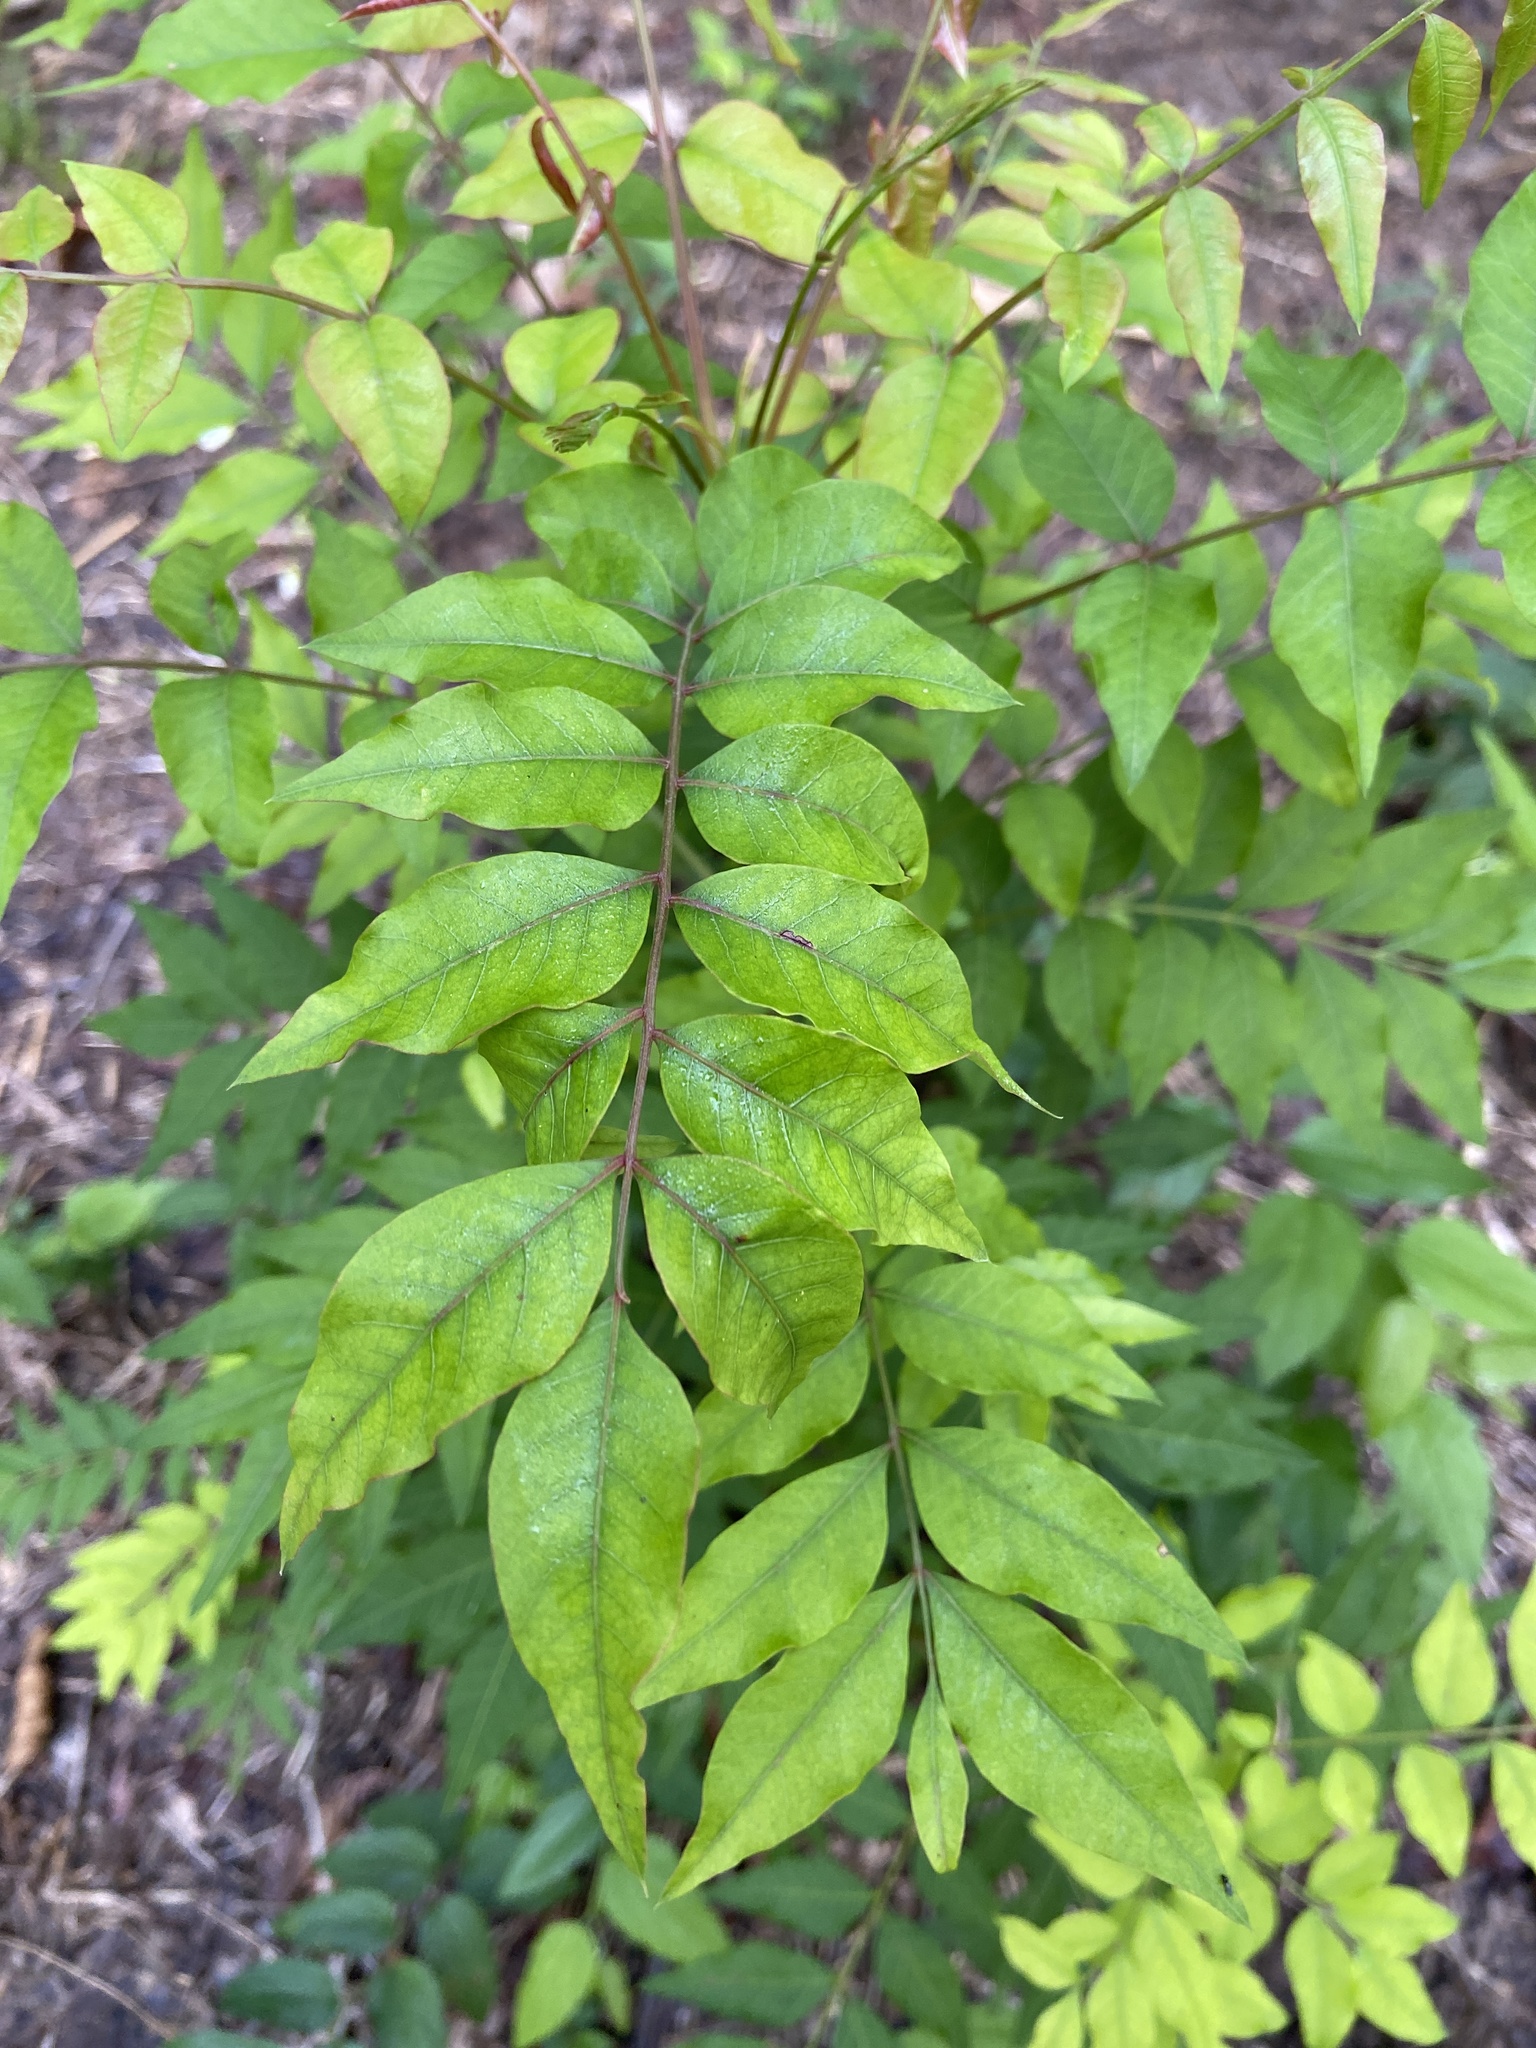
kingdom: Plantae
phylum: Tracheophyta
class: Magnoliopsida
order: Sapindales
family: Anacardiaceae
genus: Pistacia
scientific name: Pistacia chinensis
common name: Chinese pistache
